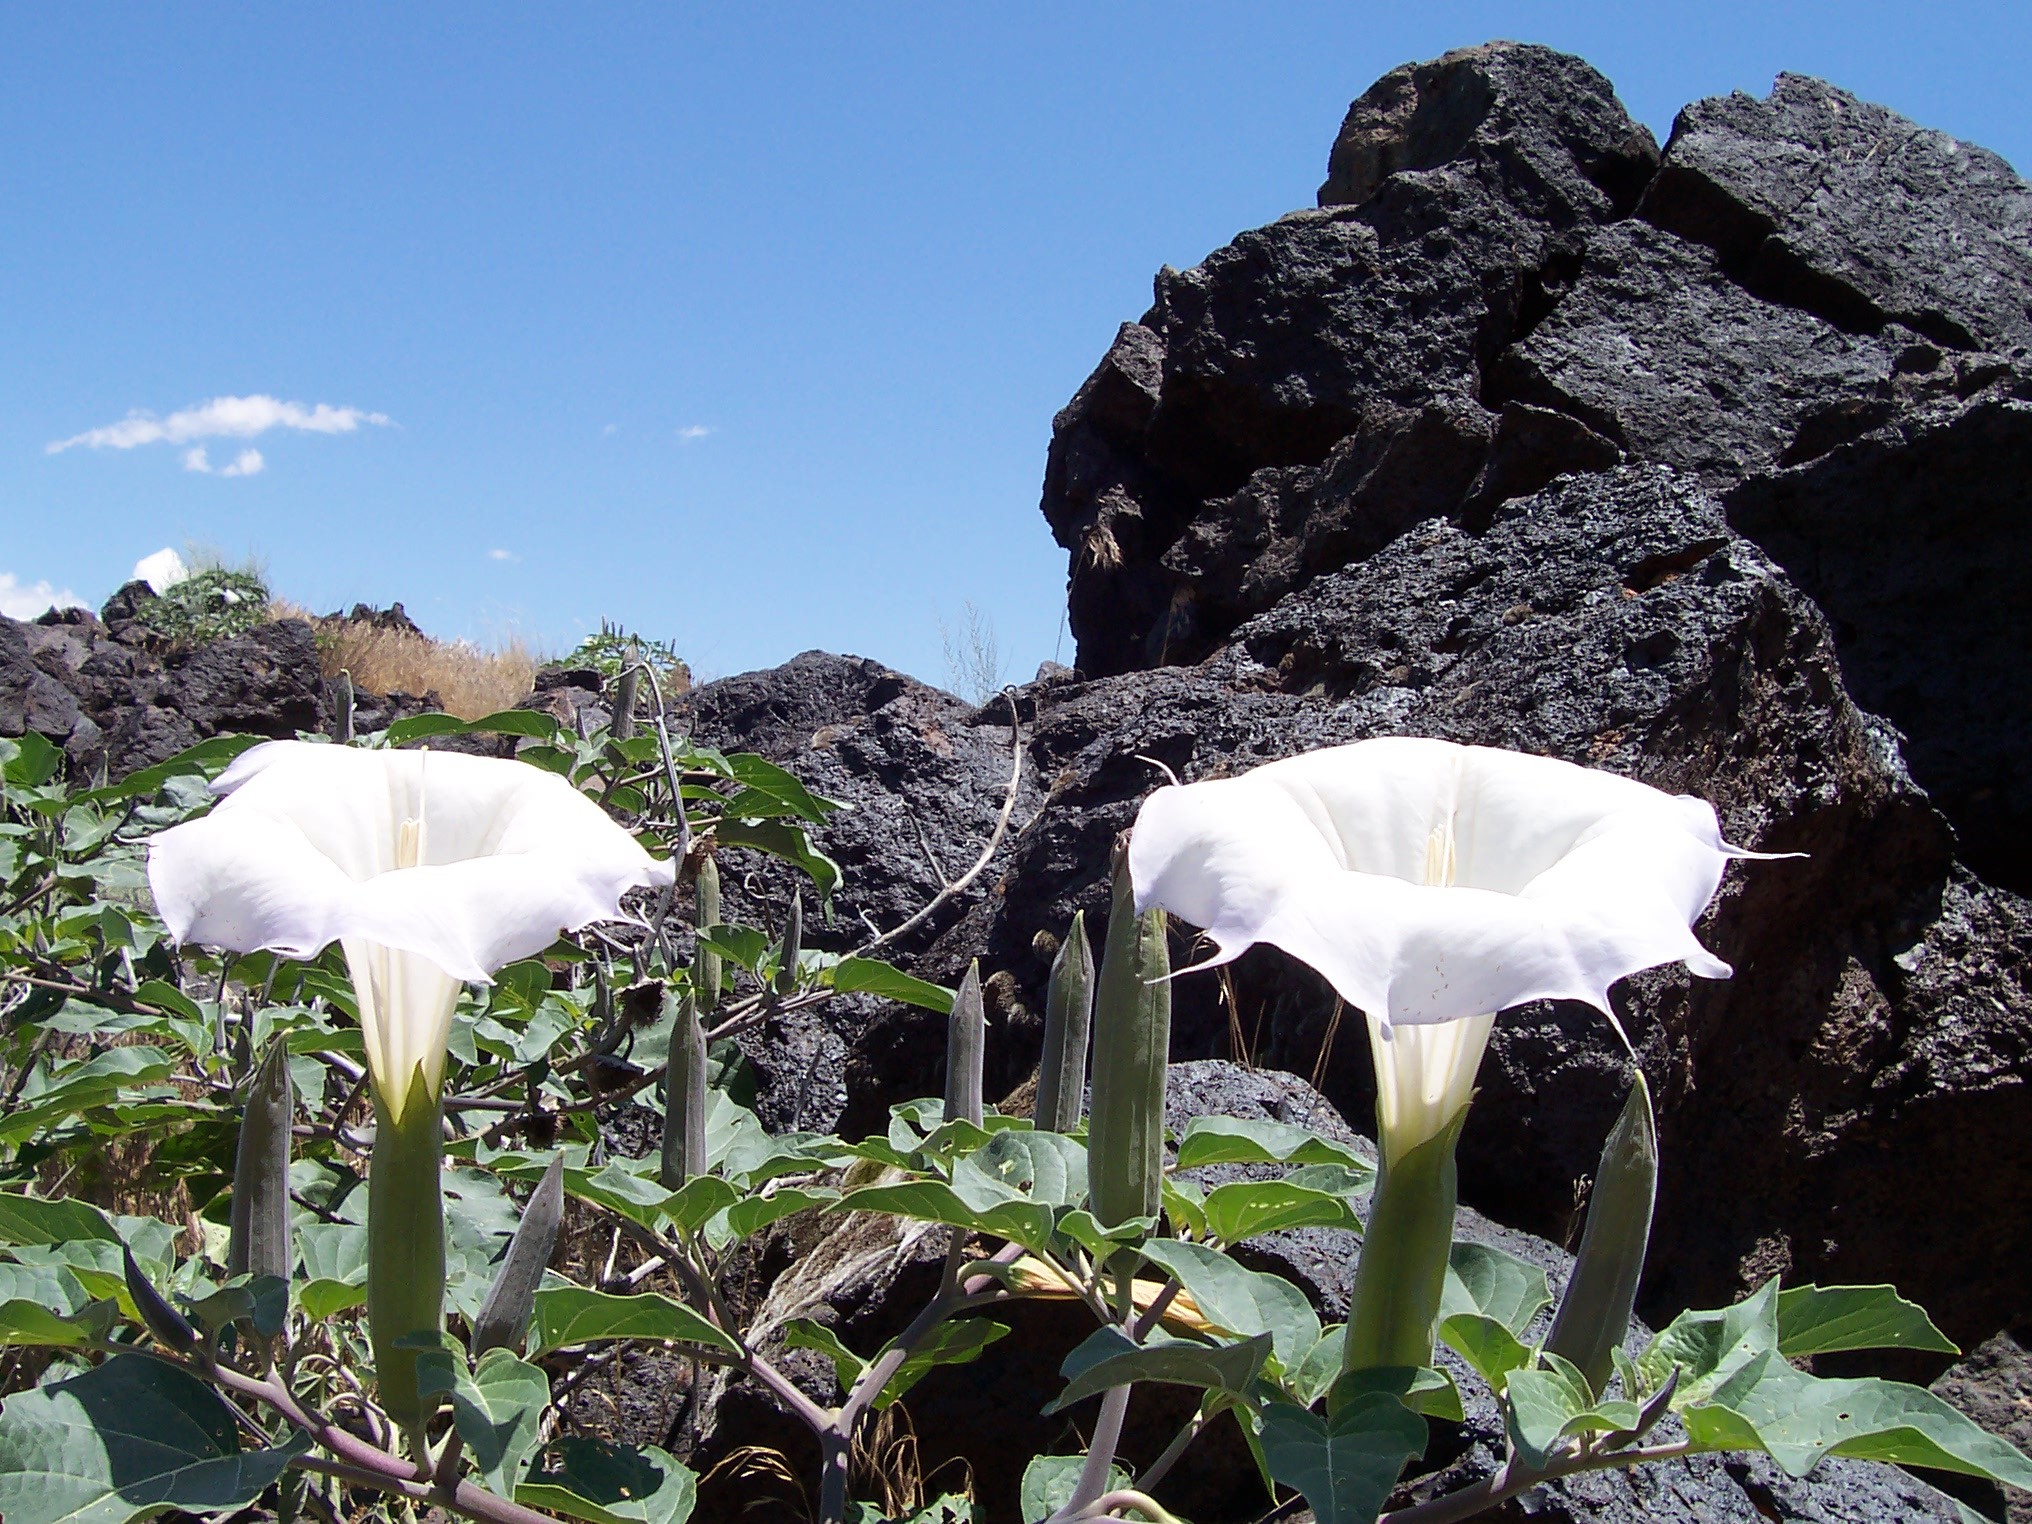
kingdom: Plantae
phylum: Tracheophyta
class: Magnoliopsida
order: Solanales
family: Solanaceae
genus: Datura
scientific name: Datura wrightii
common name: Sacred thorn-apple
